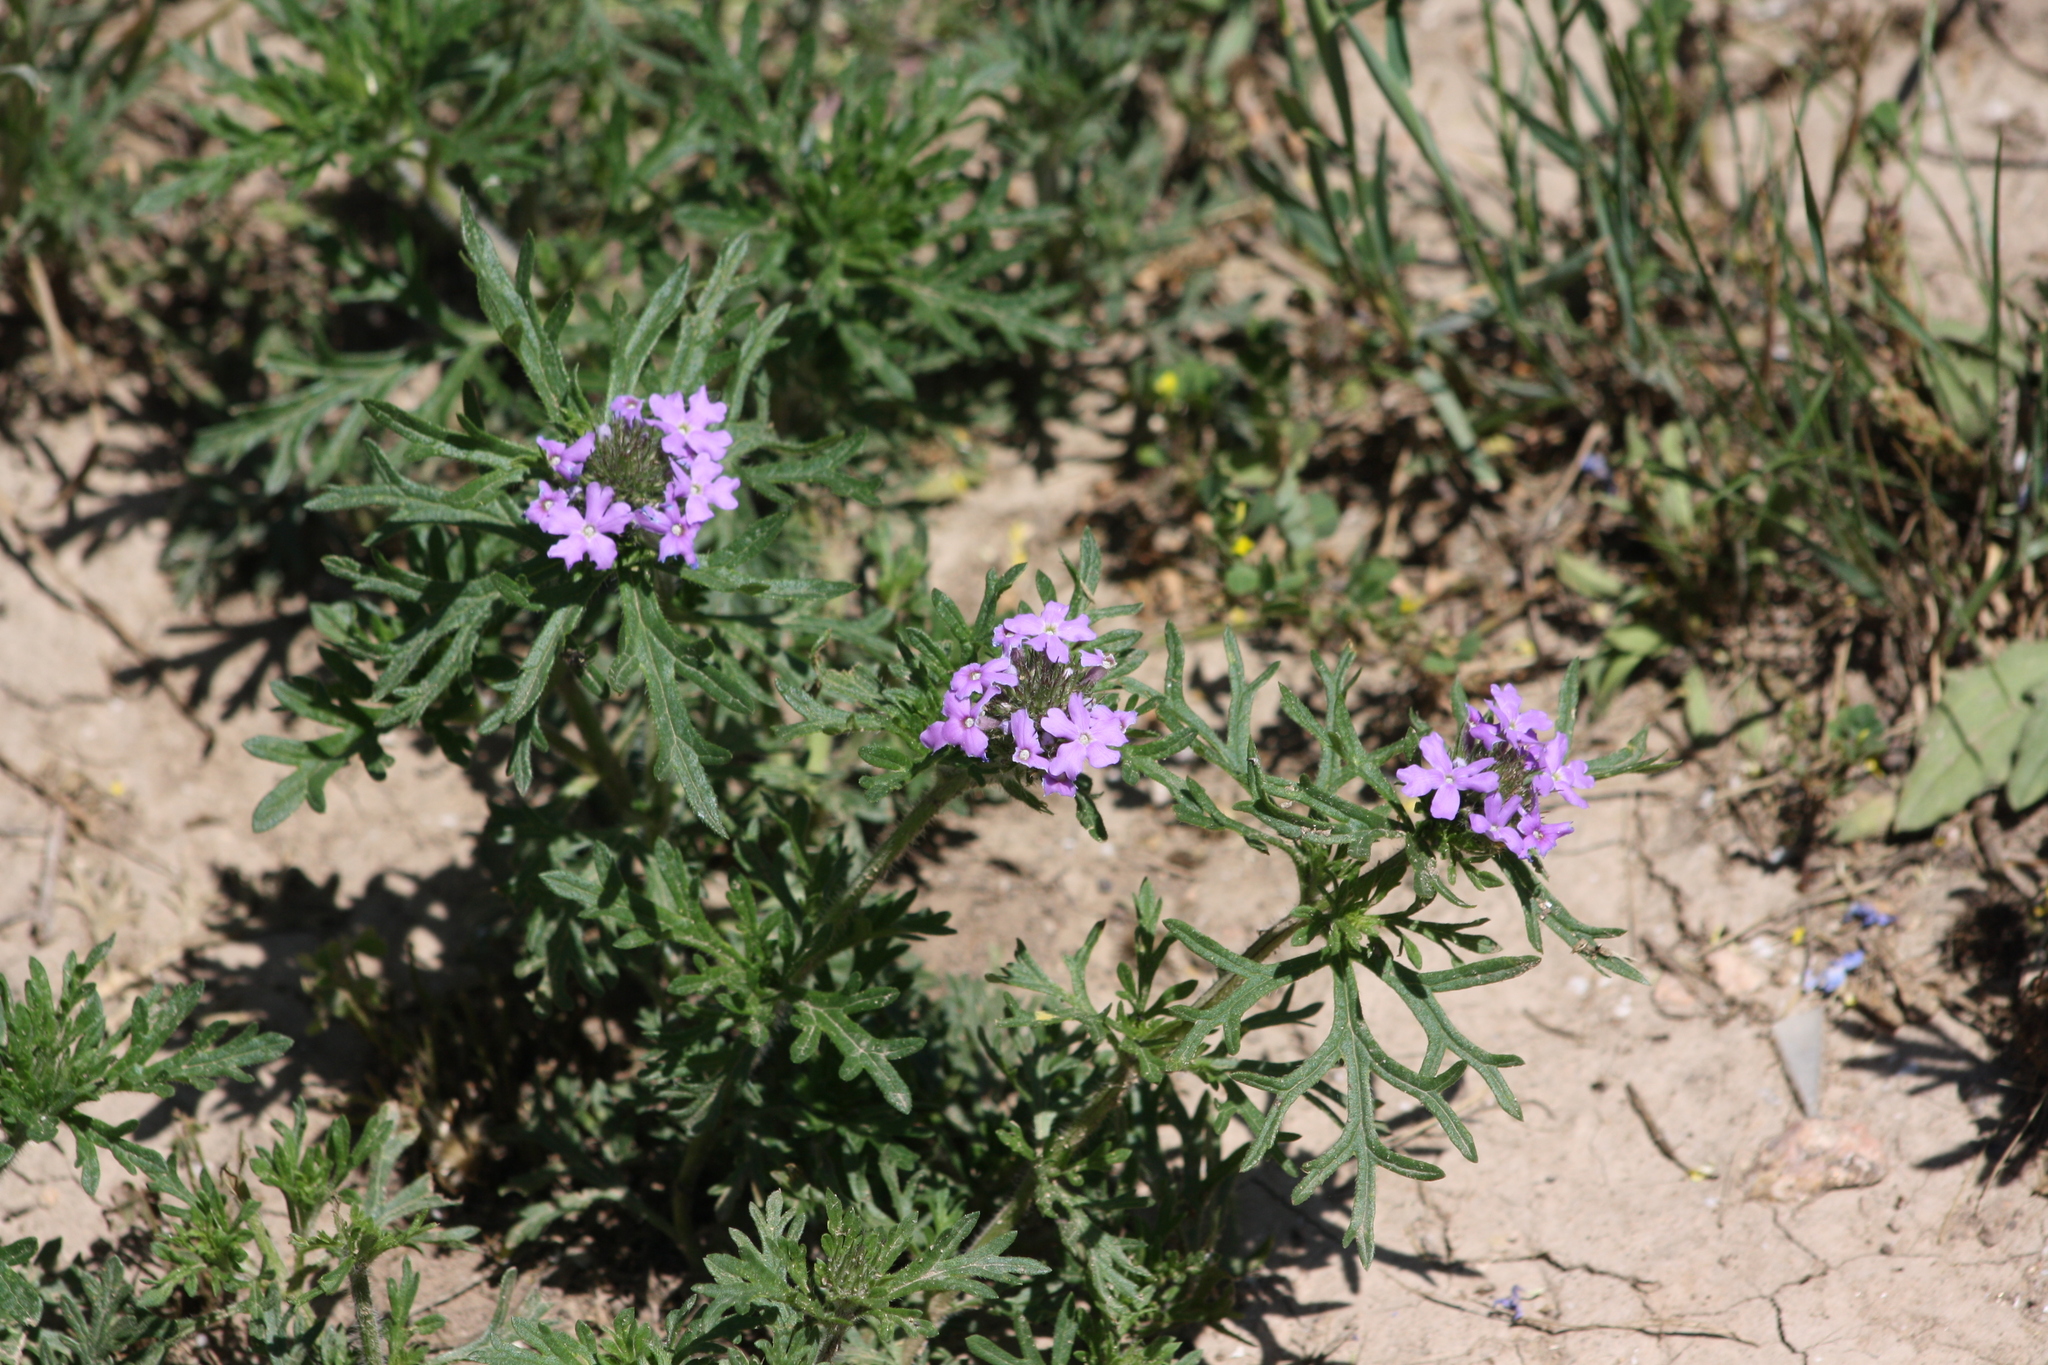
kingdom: Plantae
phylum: Tracheophyta
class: Magnoliopsida
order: Lamiales
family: Verbenaceae
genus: Verbena
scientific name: Verbena bipinnatifida
